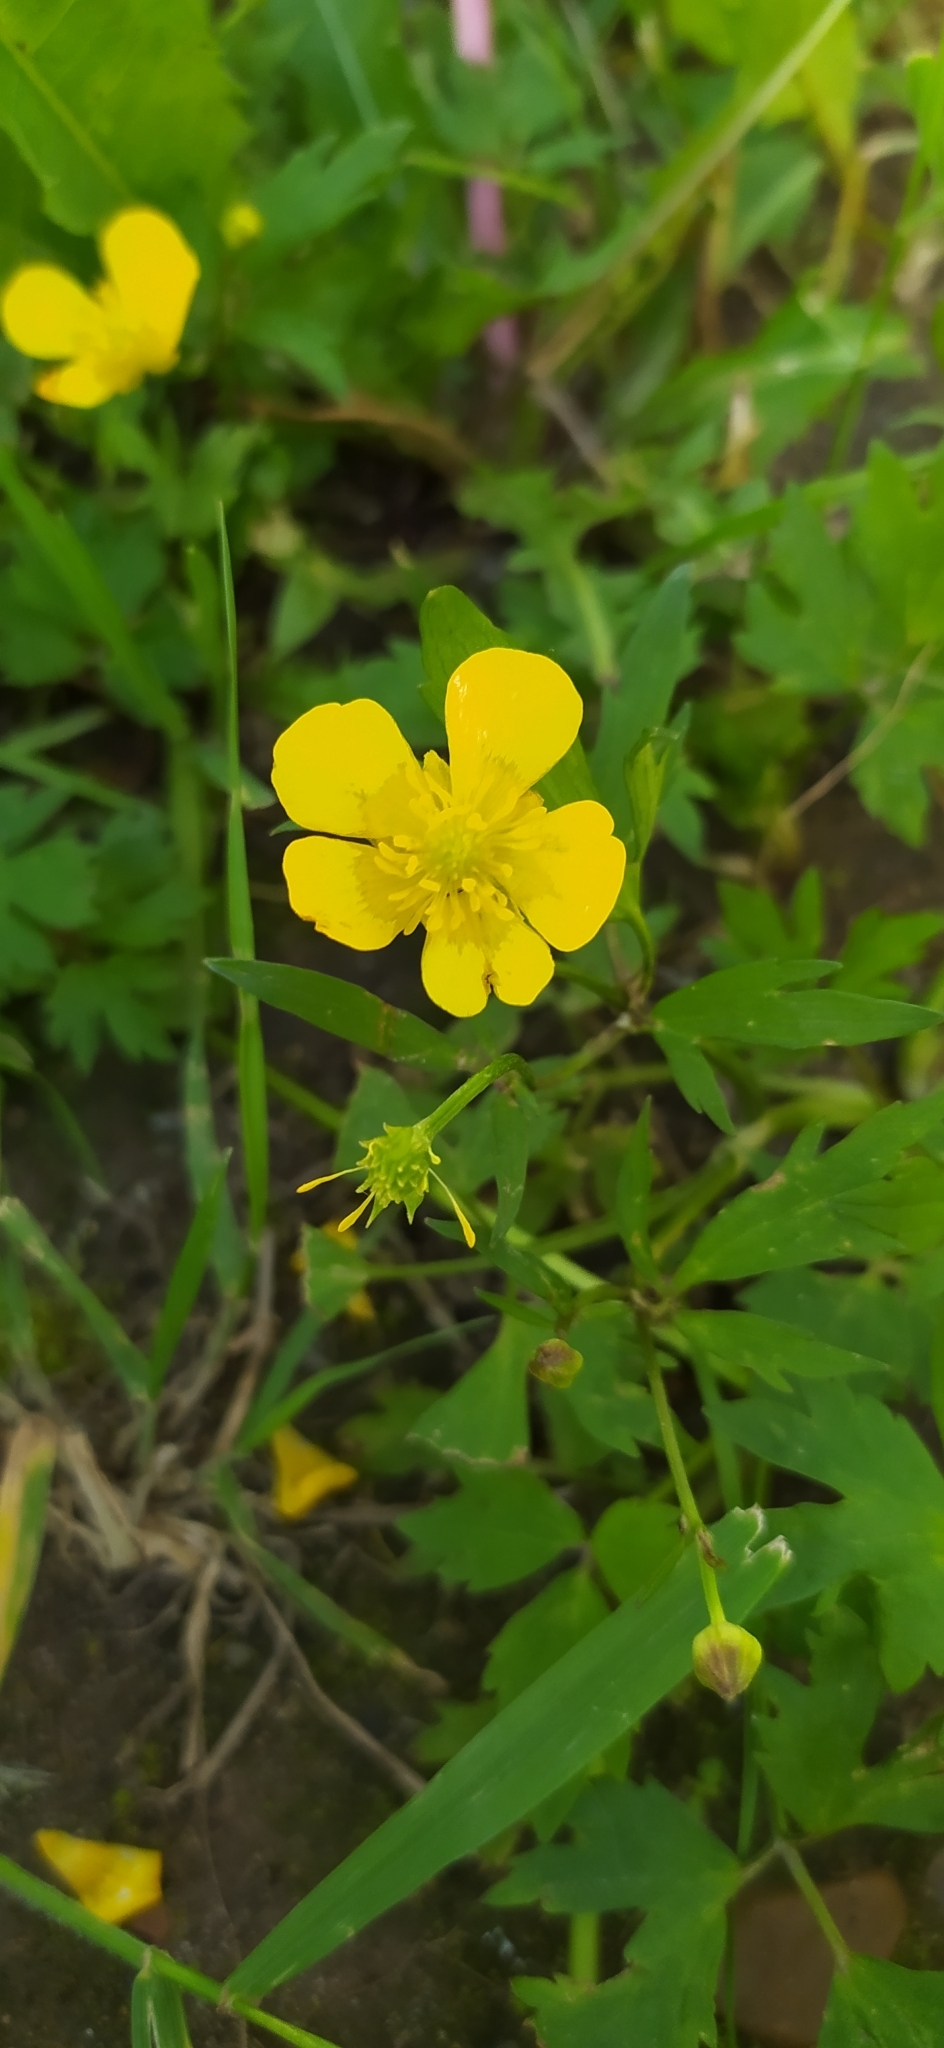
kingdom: Plantae
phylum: Tracheophyta
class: Magnoliopsida
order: Ranunculales
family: Ranunculaceae
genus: Ranunculus
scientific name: Ranunculus repens
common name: Creeping buttercup
